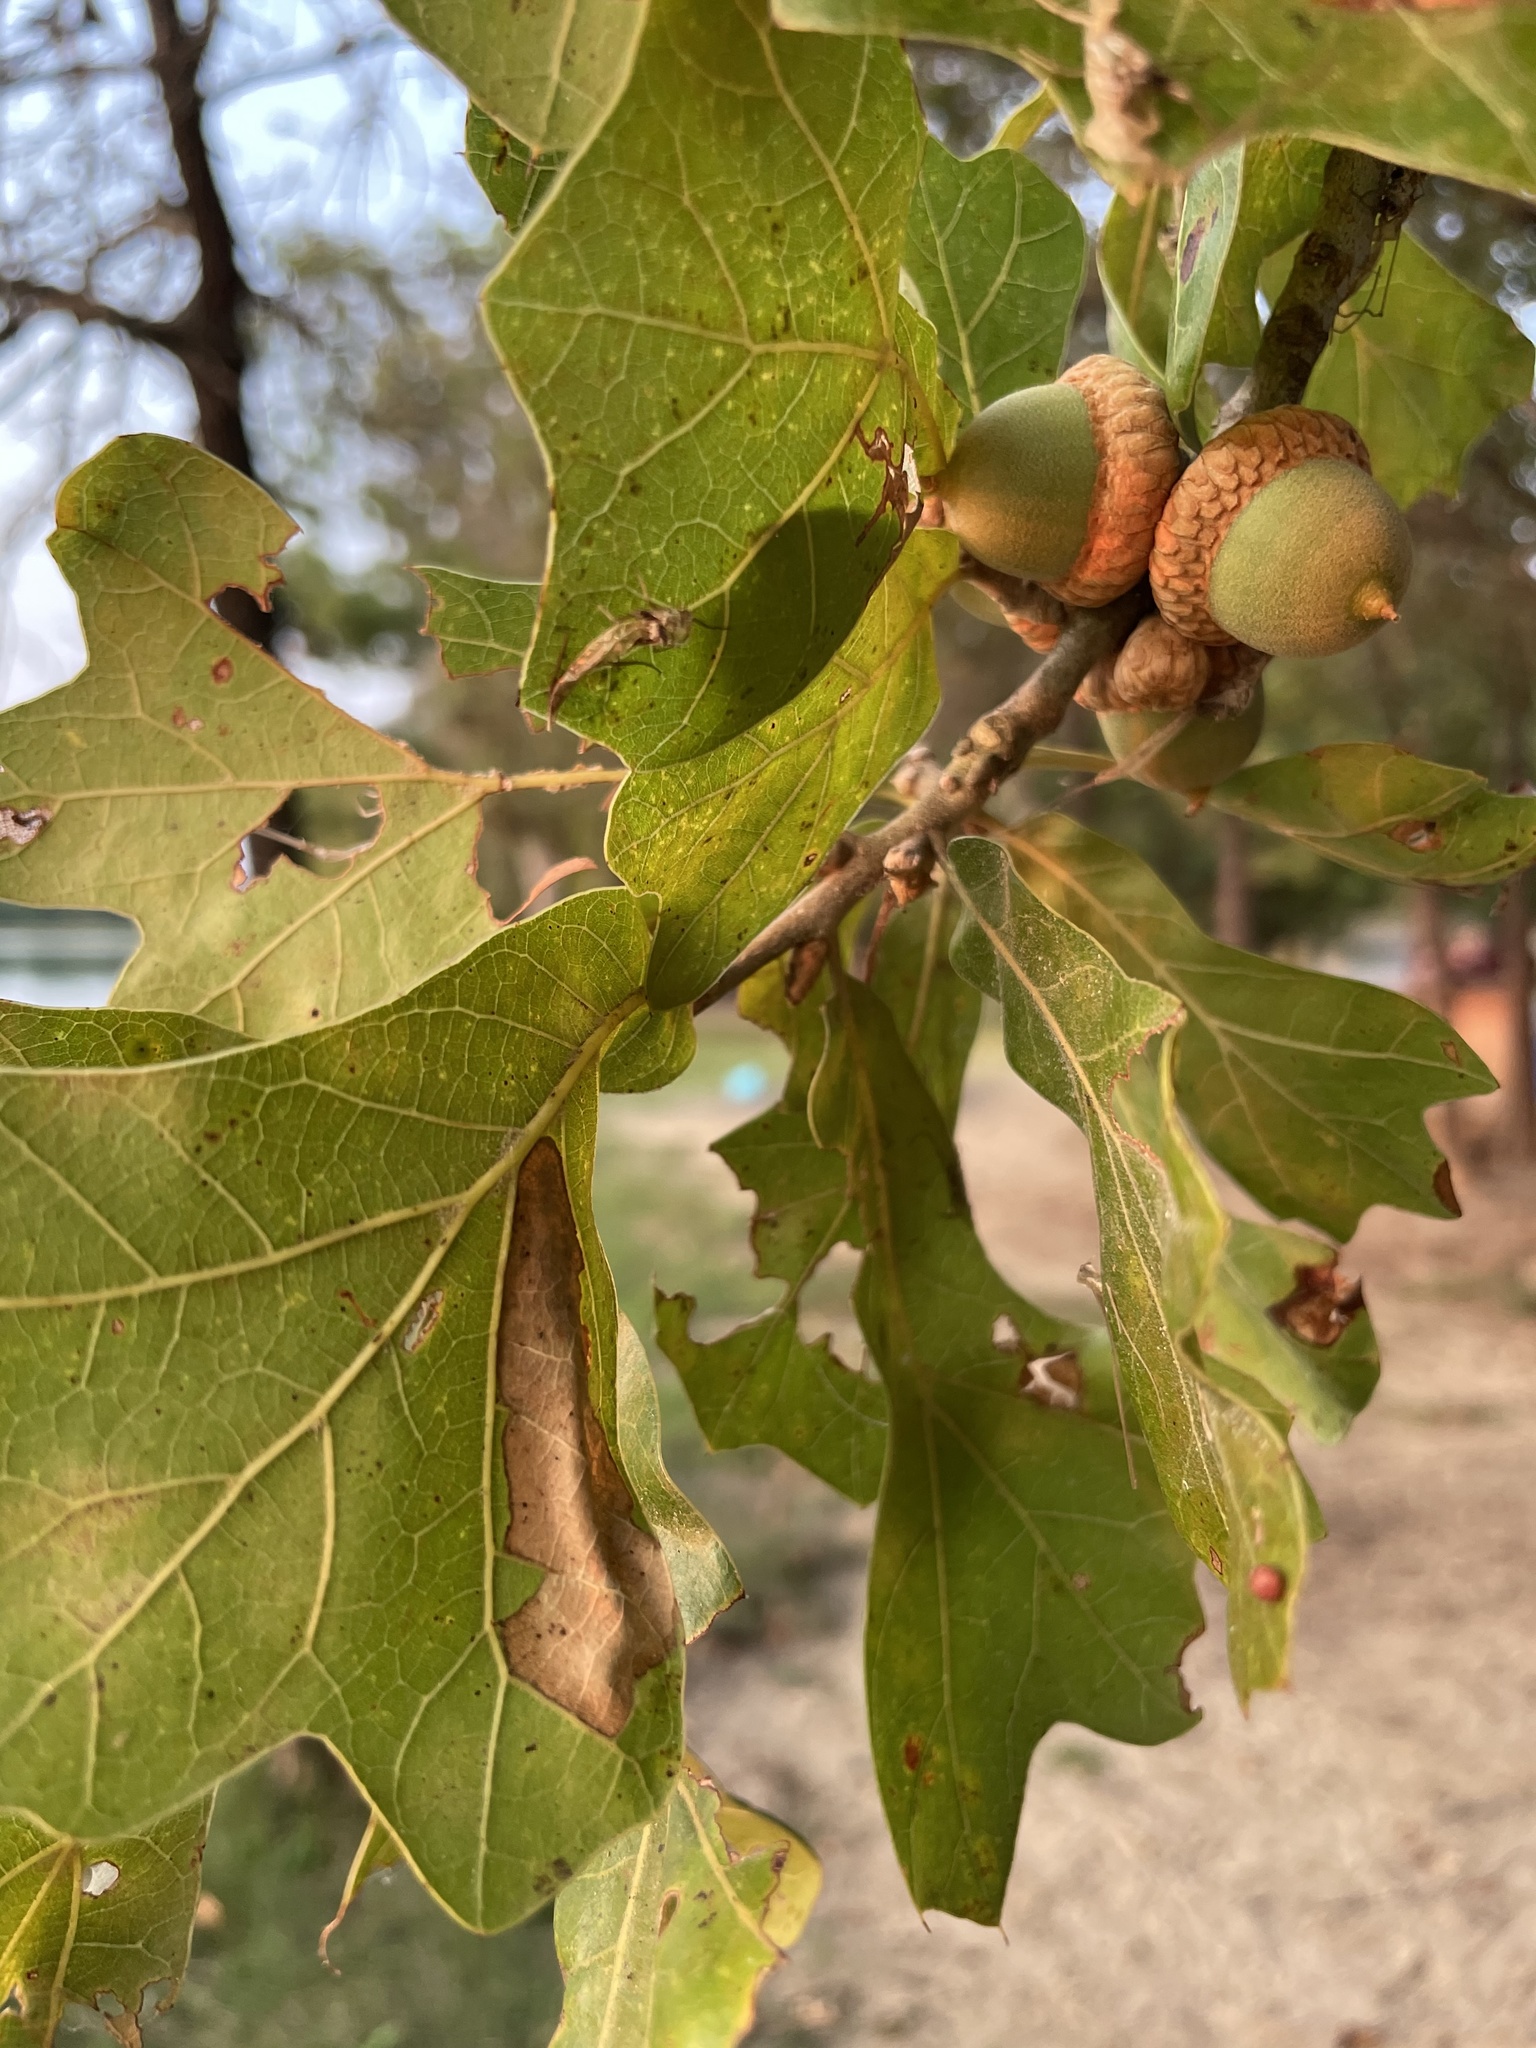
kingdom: Plantae
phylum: Tracheophyta
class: Magnoliopsida
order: Fagales
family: Fagaceae
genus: Quercus
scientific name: Quercus marilandica
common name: Blackjack oak
